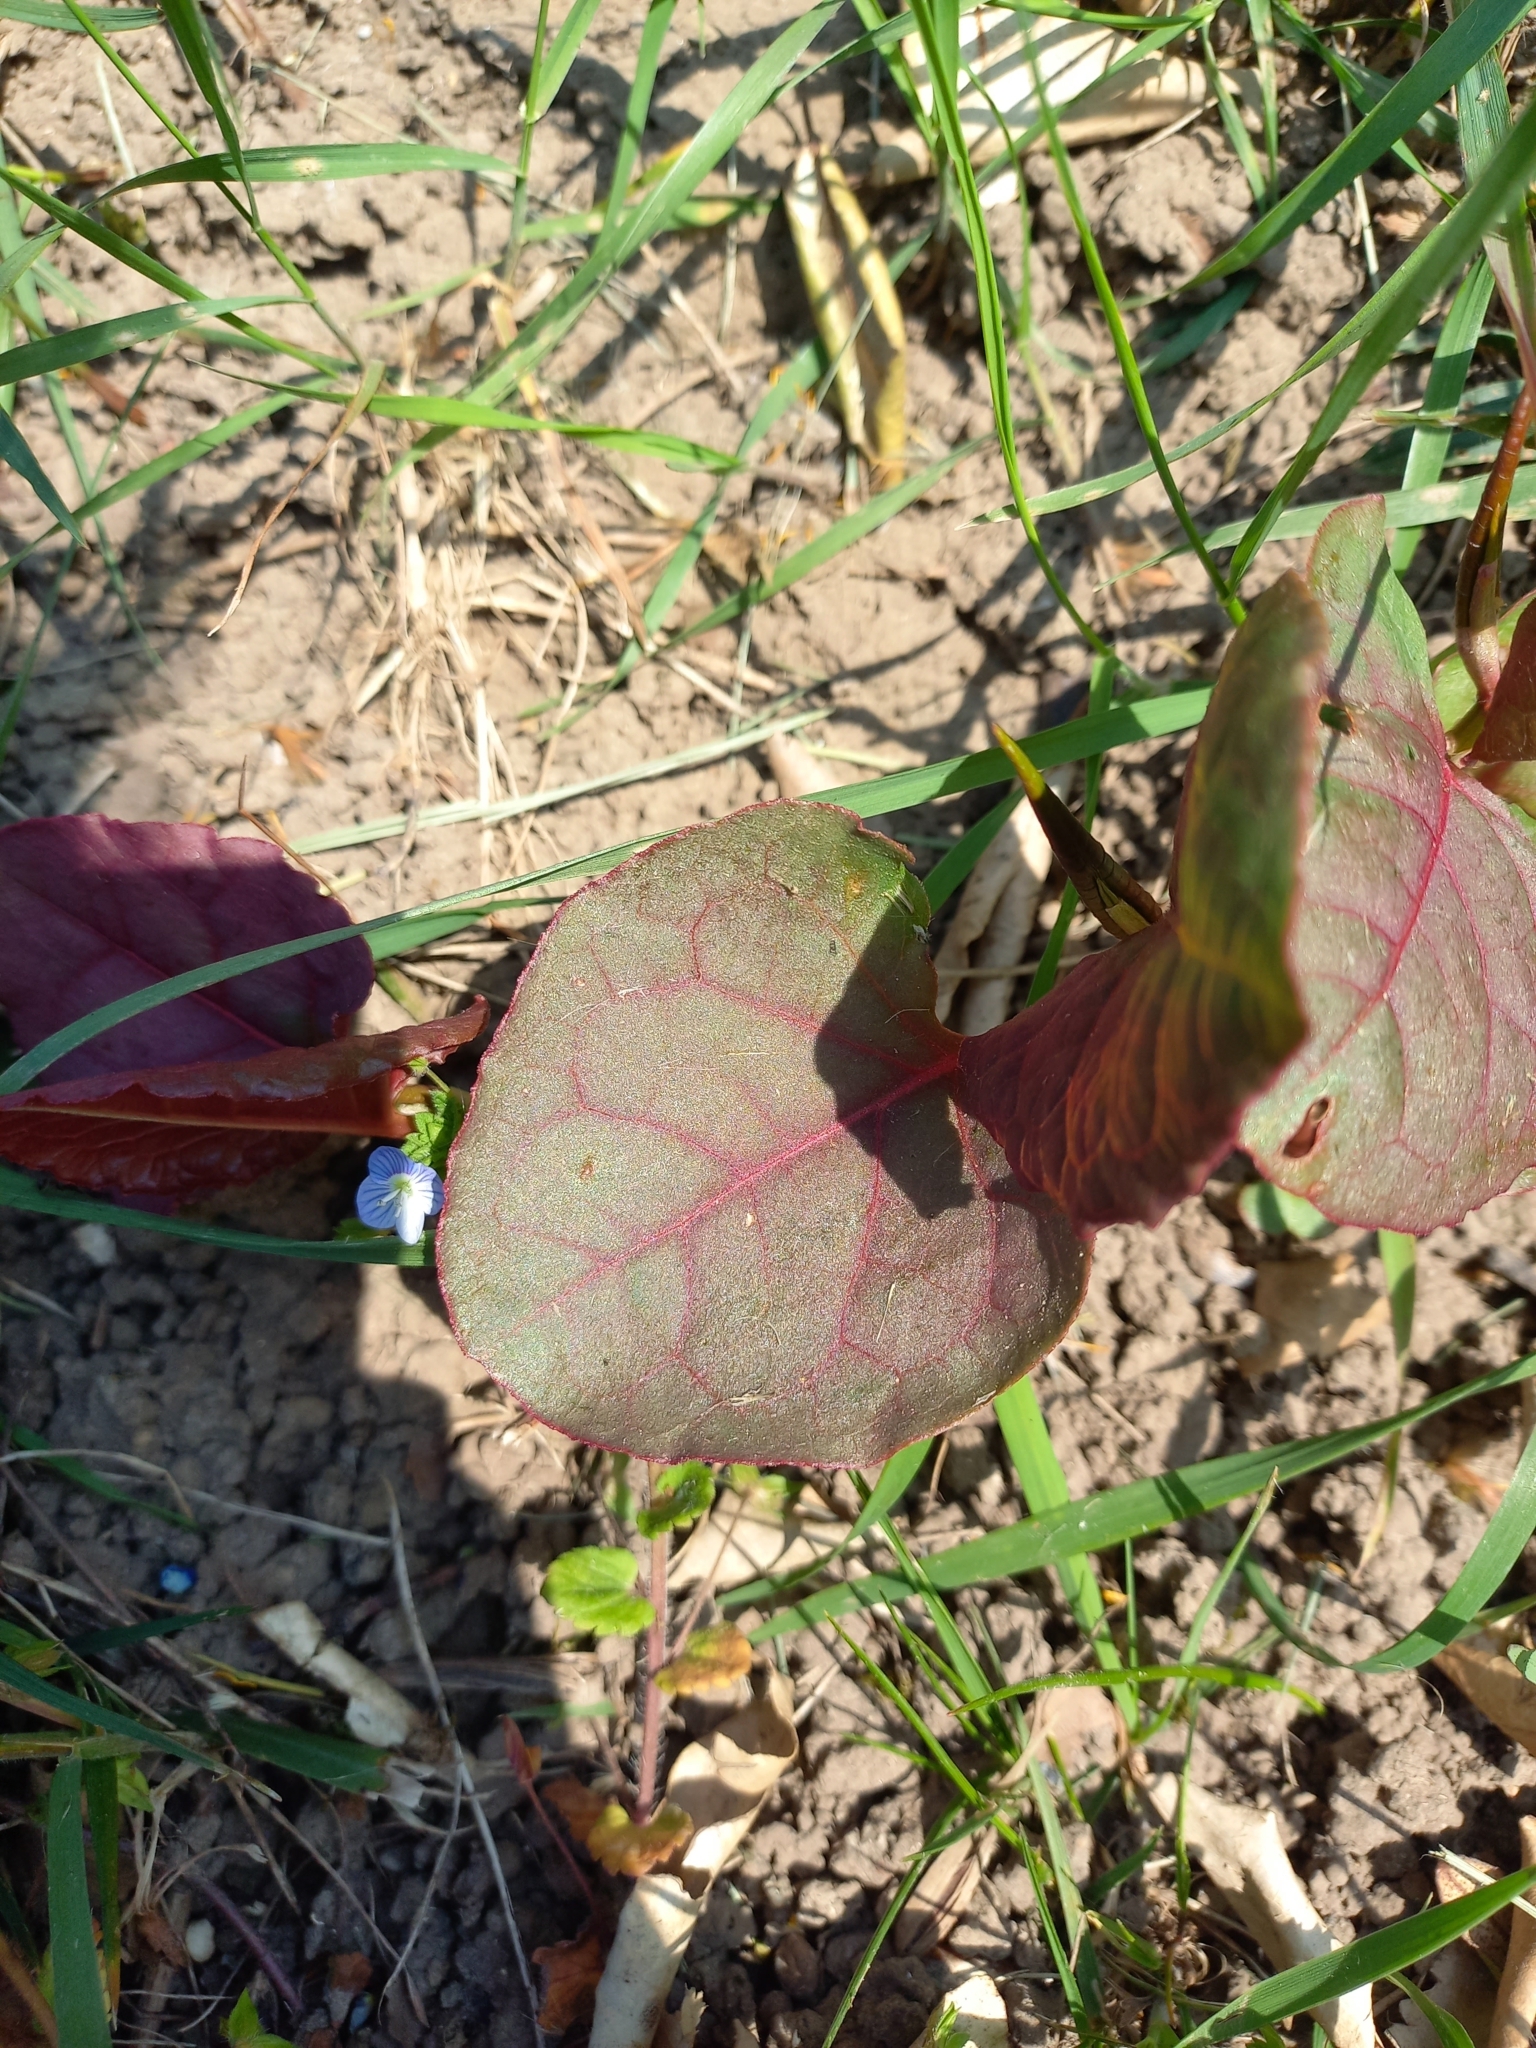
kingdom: Plantae
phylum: Tracheophyta
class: Magnoliopsida
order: Caryophyllales
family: Polygonaceae
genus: Reynoutria
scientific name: Reynoutria japonica
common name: Japanese knotweed
